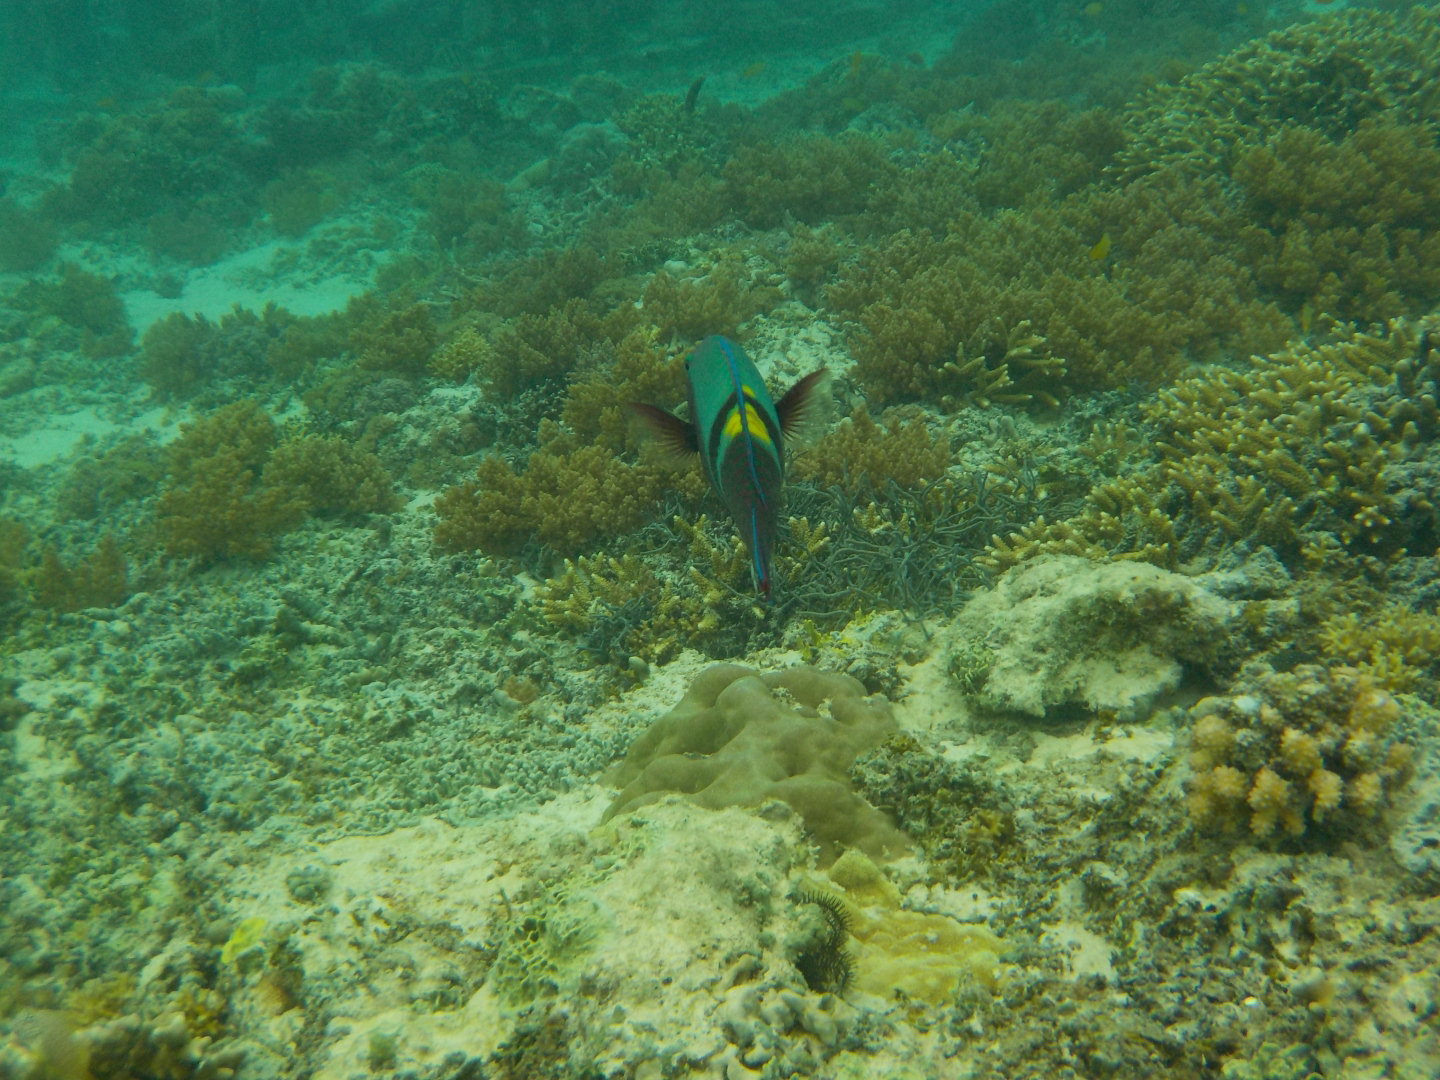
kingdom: Animalia
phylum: Chordata
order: Perciformes
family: Scaridae
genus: Scarus
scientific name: Scarus schlegeli
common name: Schlegel's parrotfish
